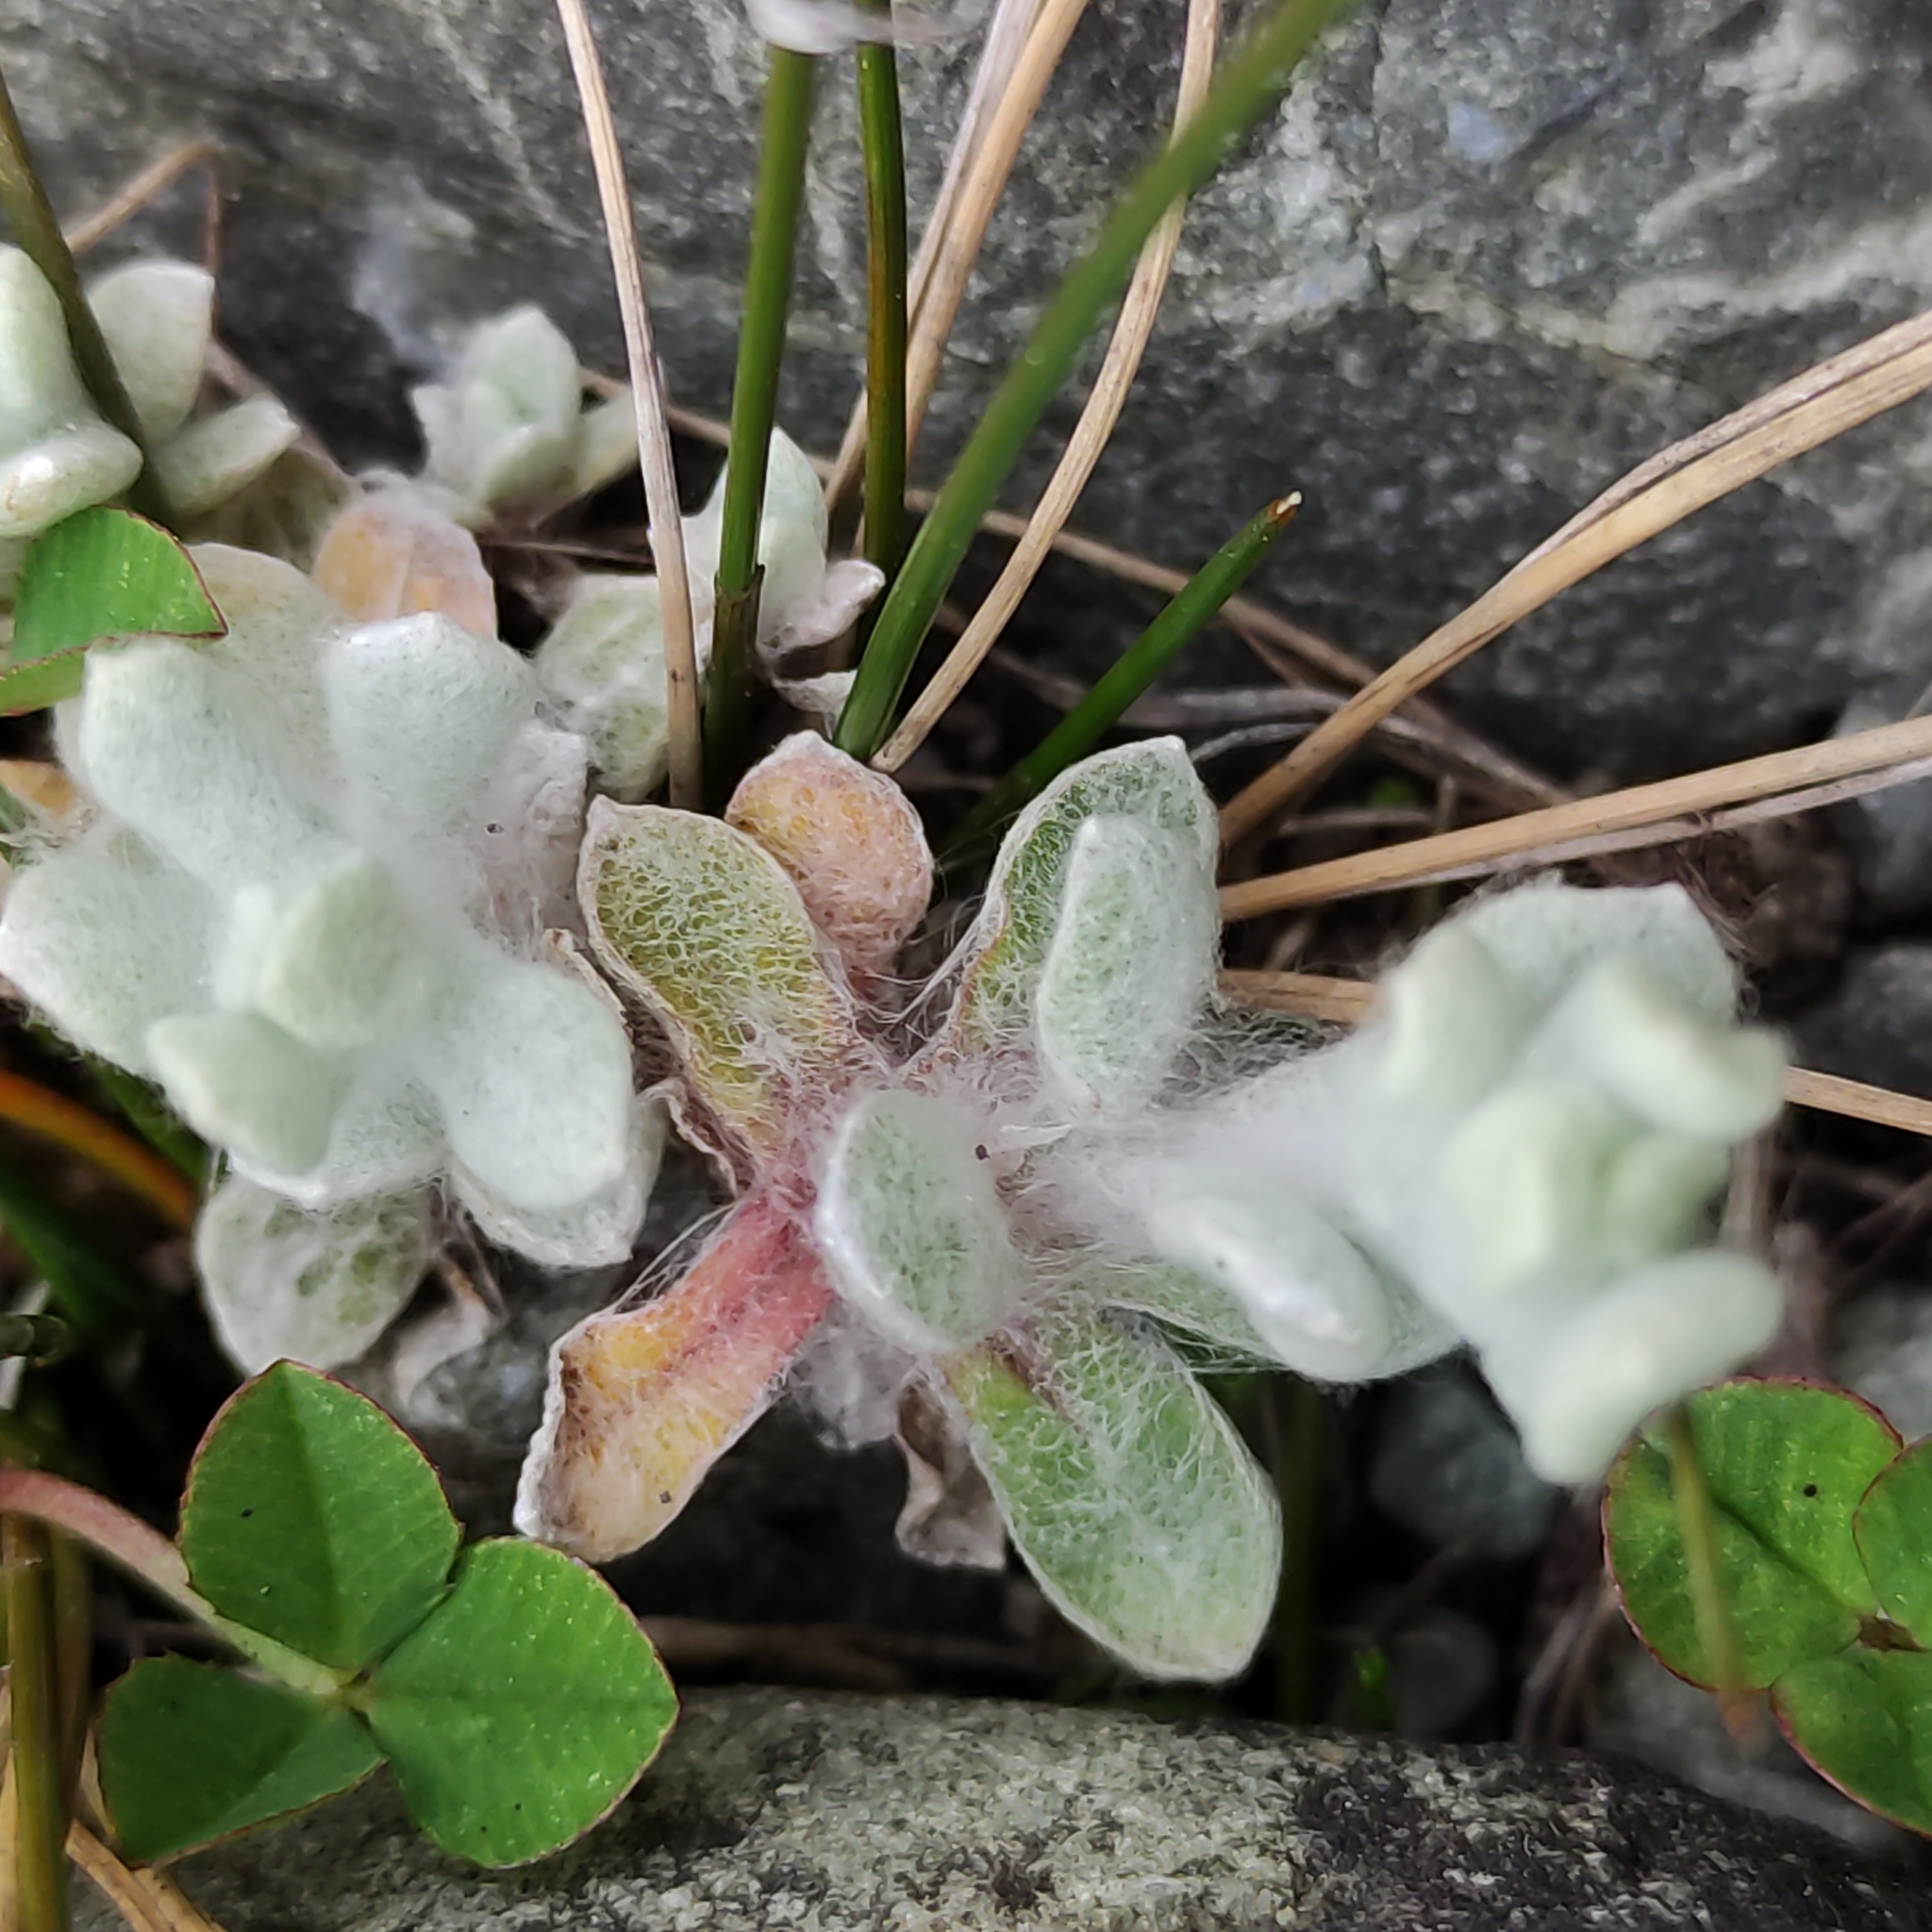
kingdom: Plantae
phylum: Tracheophyta
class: Magnoliopsida
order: Asterales
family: Asteraceae
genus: Helichrysum
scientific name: Helichrysum luteoalbum
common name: Daisy
